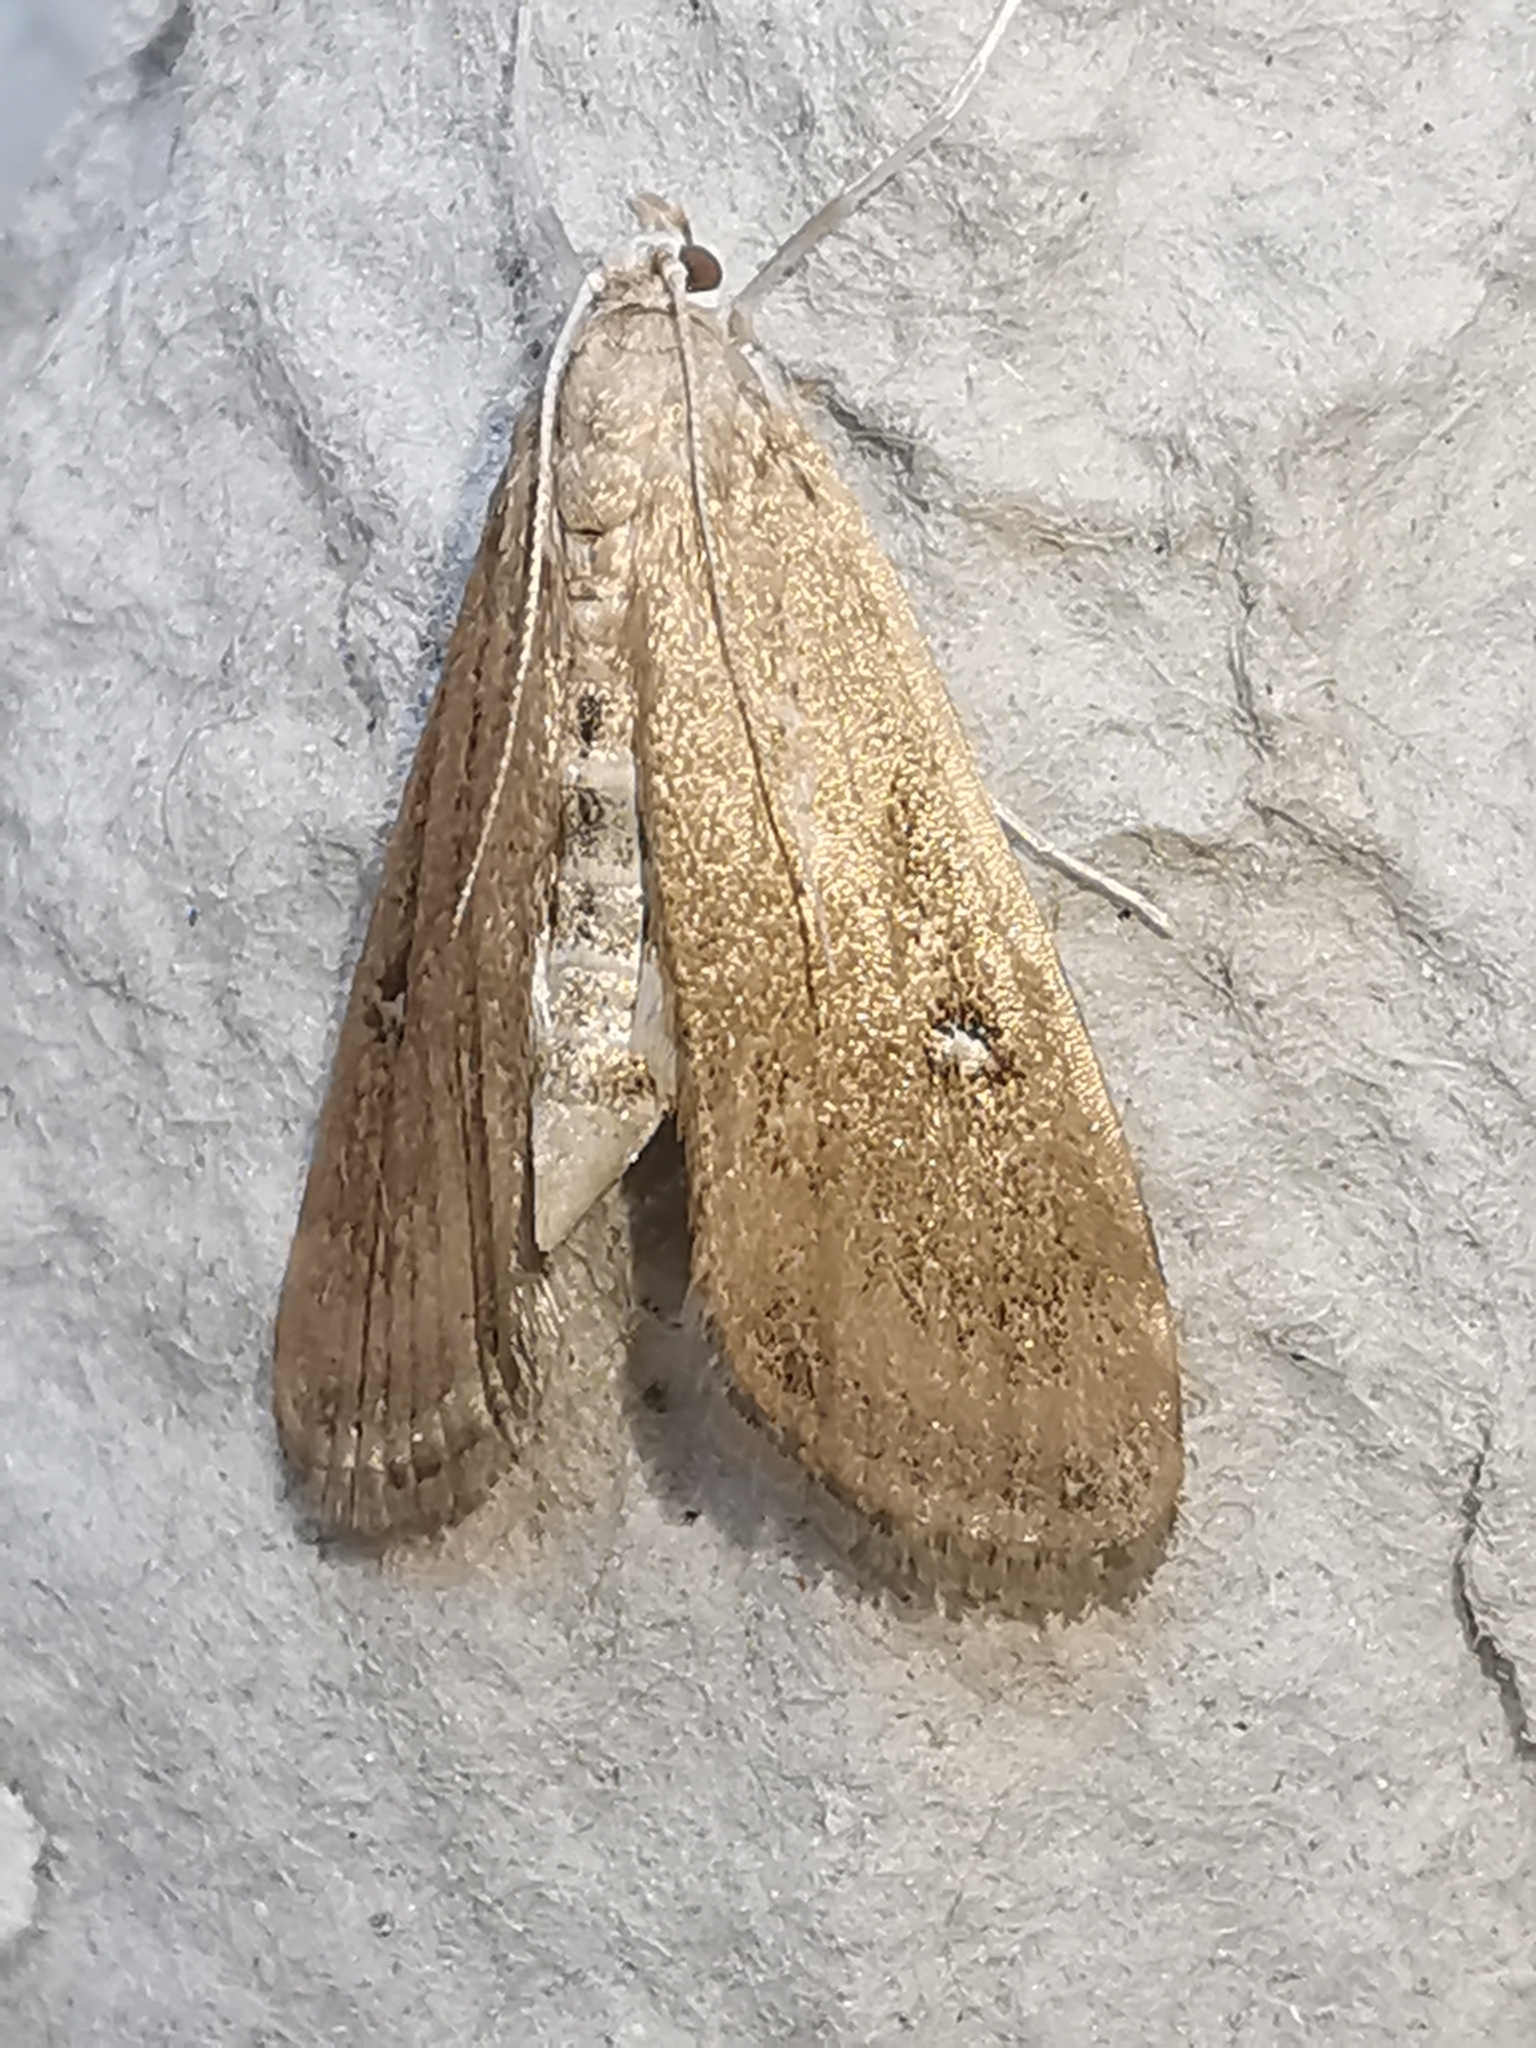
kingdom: Animalia
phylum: Arthropoda
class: Insecta
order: Lepidoptera
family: Crambidae
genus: Parapoynx
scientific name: Parapoynx stratiotata
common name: Ringed china-mark
